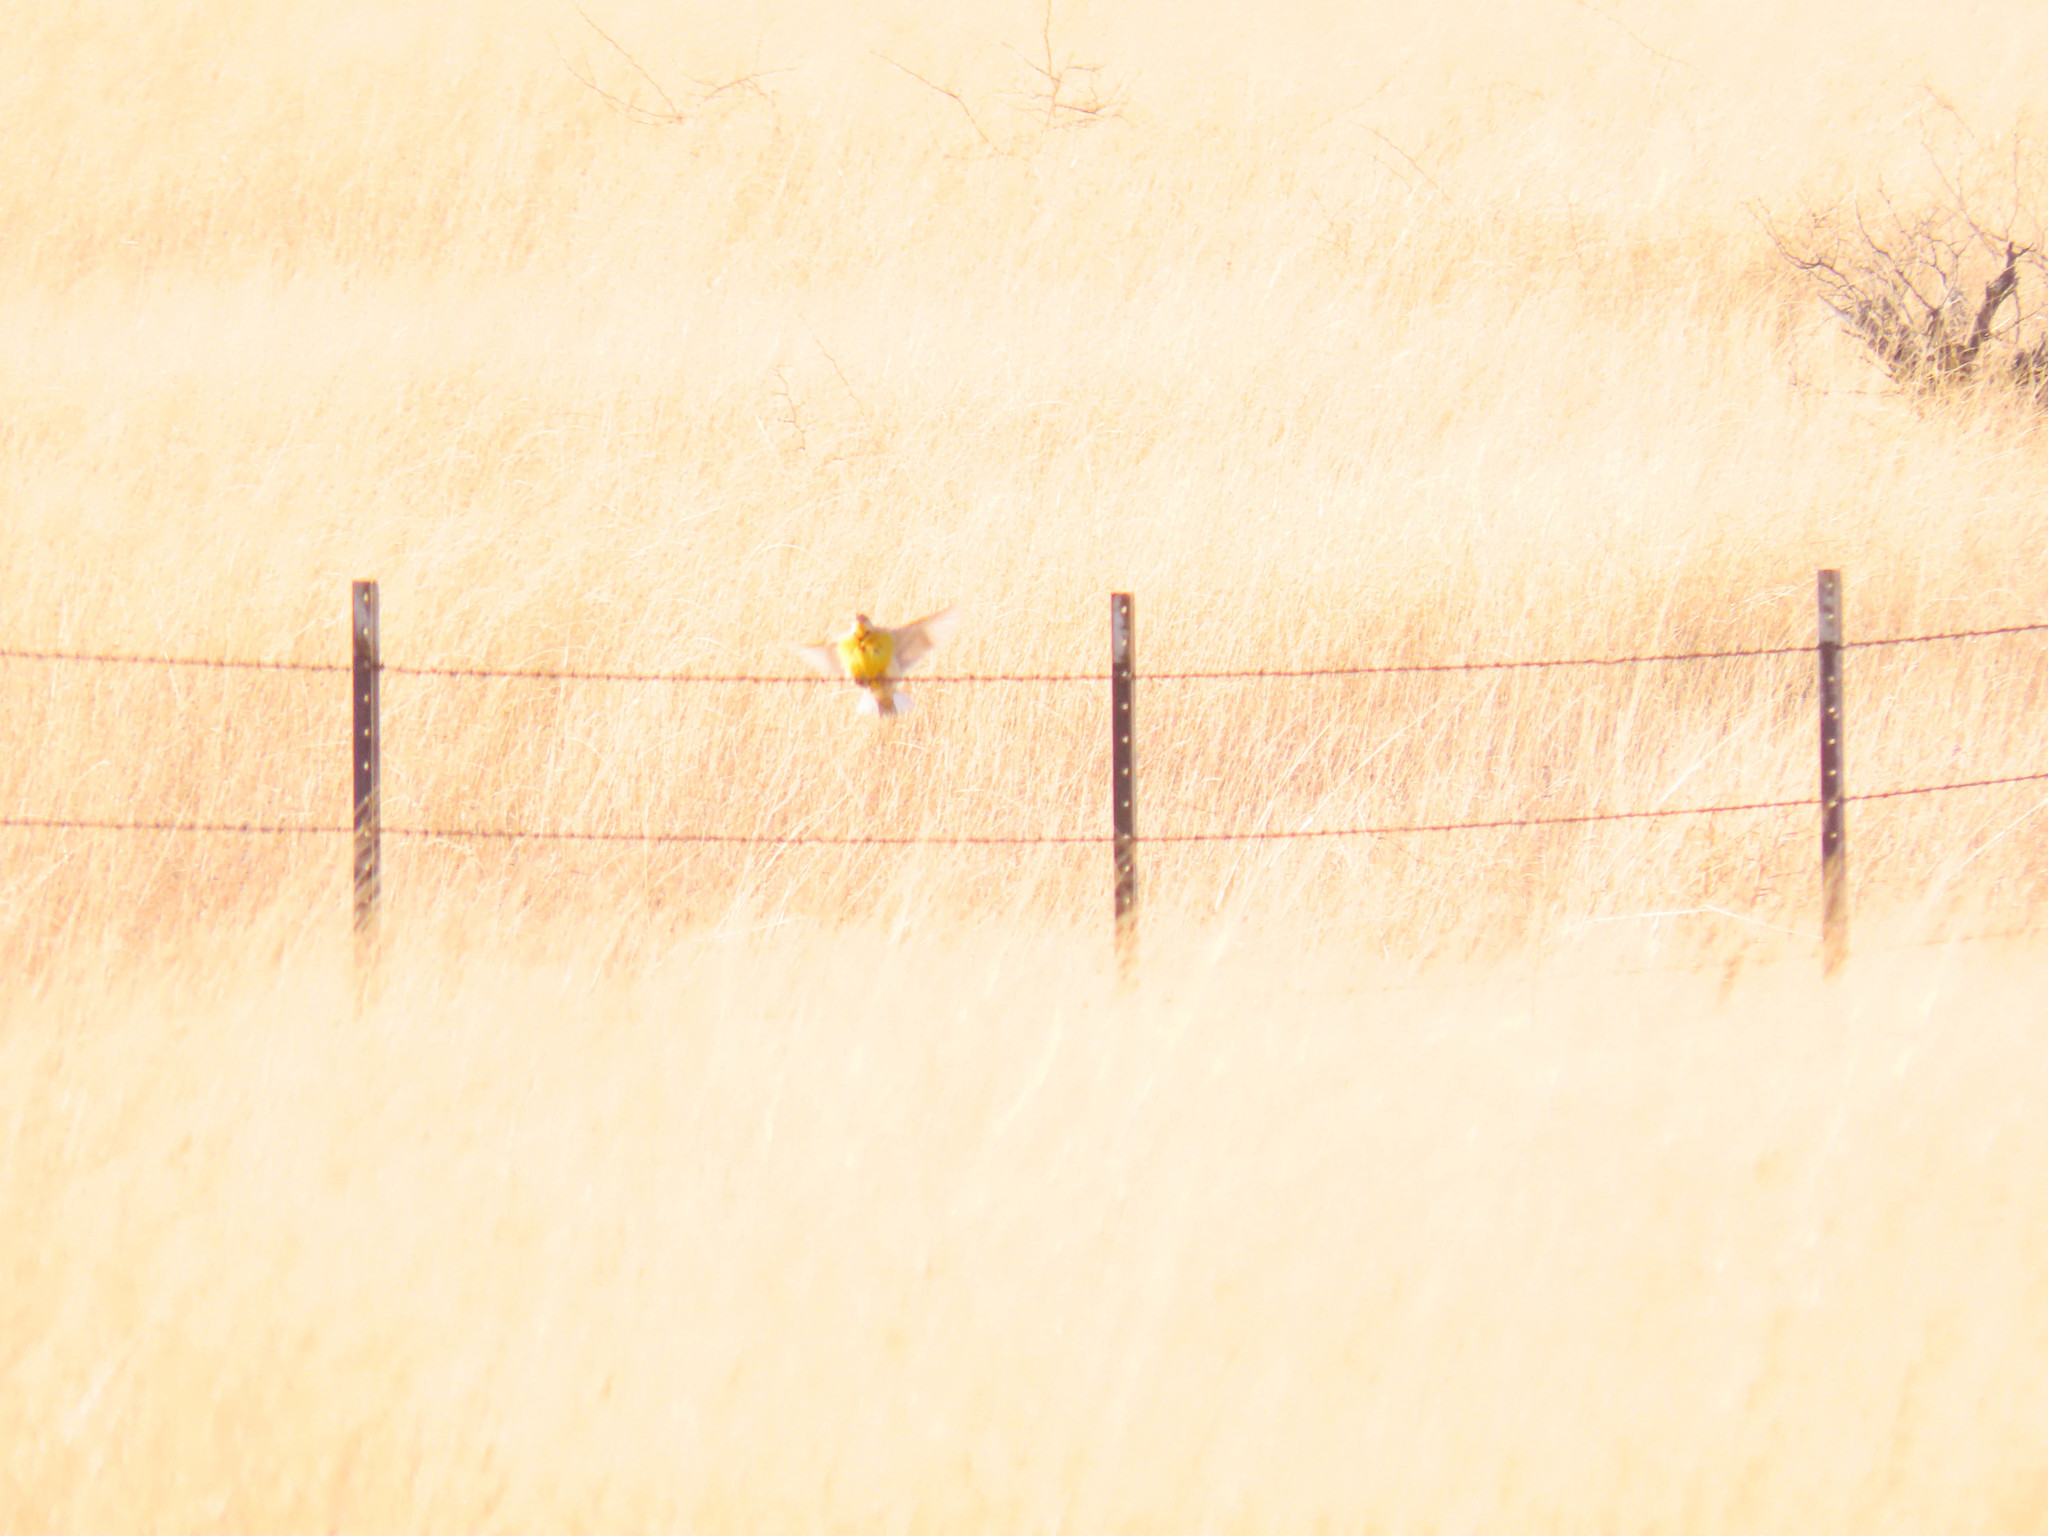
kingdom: Animalia
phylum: Chordata
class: Aves
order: Passeriformes
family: Icteridae
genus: Sturnella
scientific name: Sturnella lilianae
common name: Lilian's meadowlark
